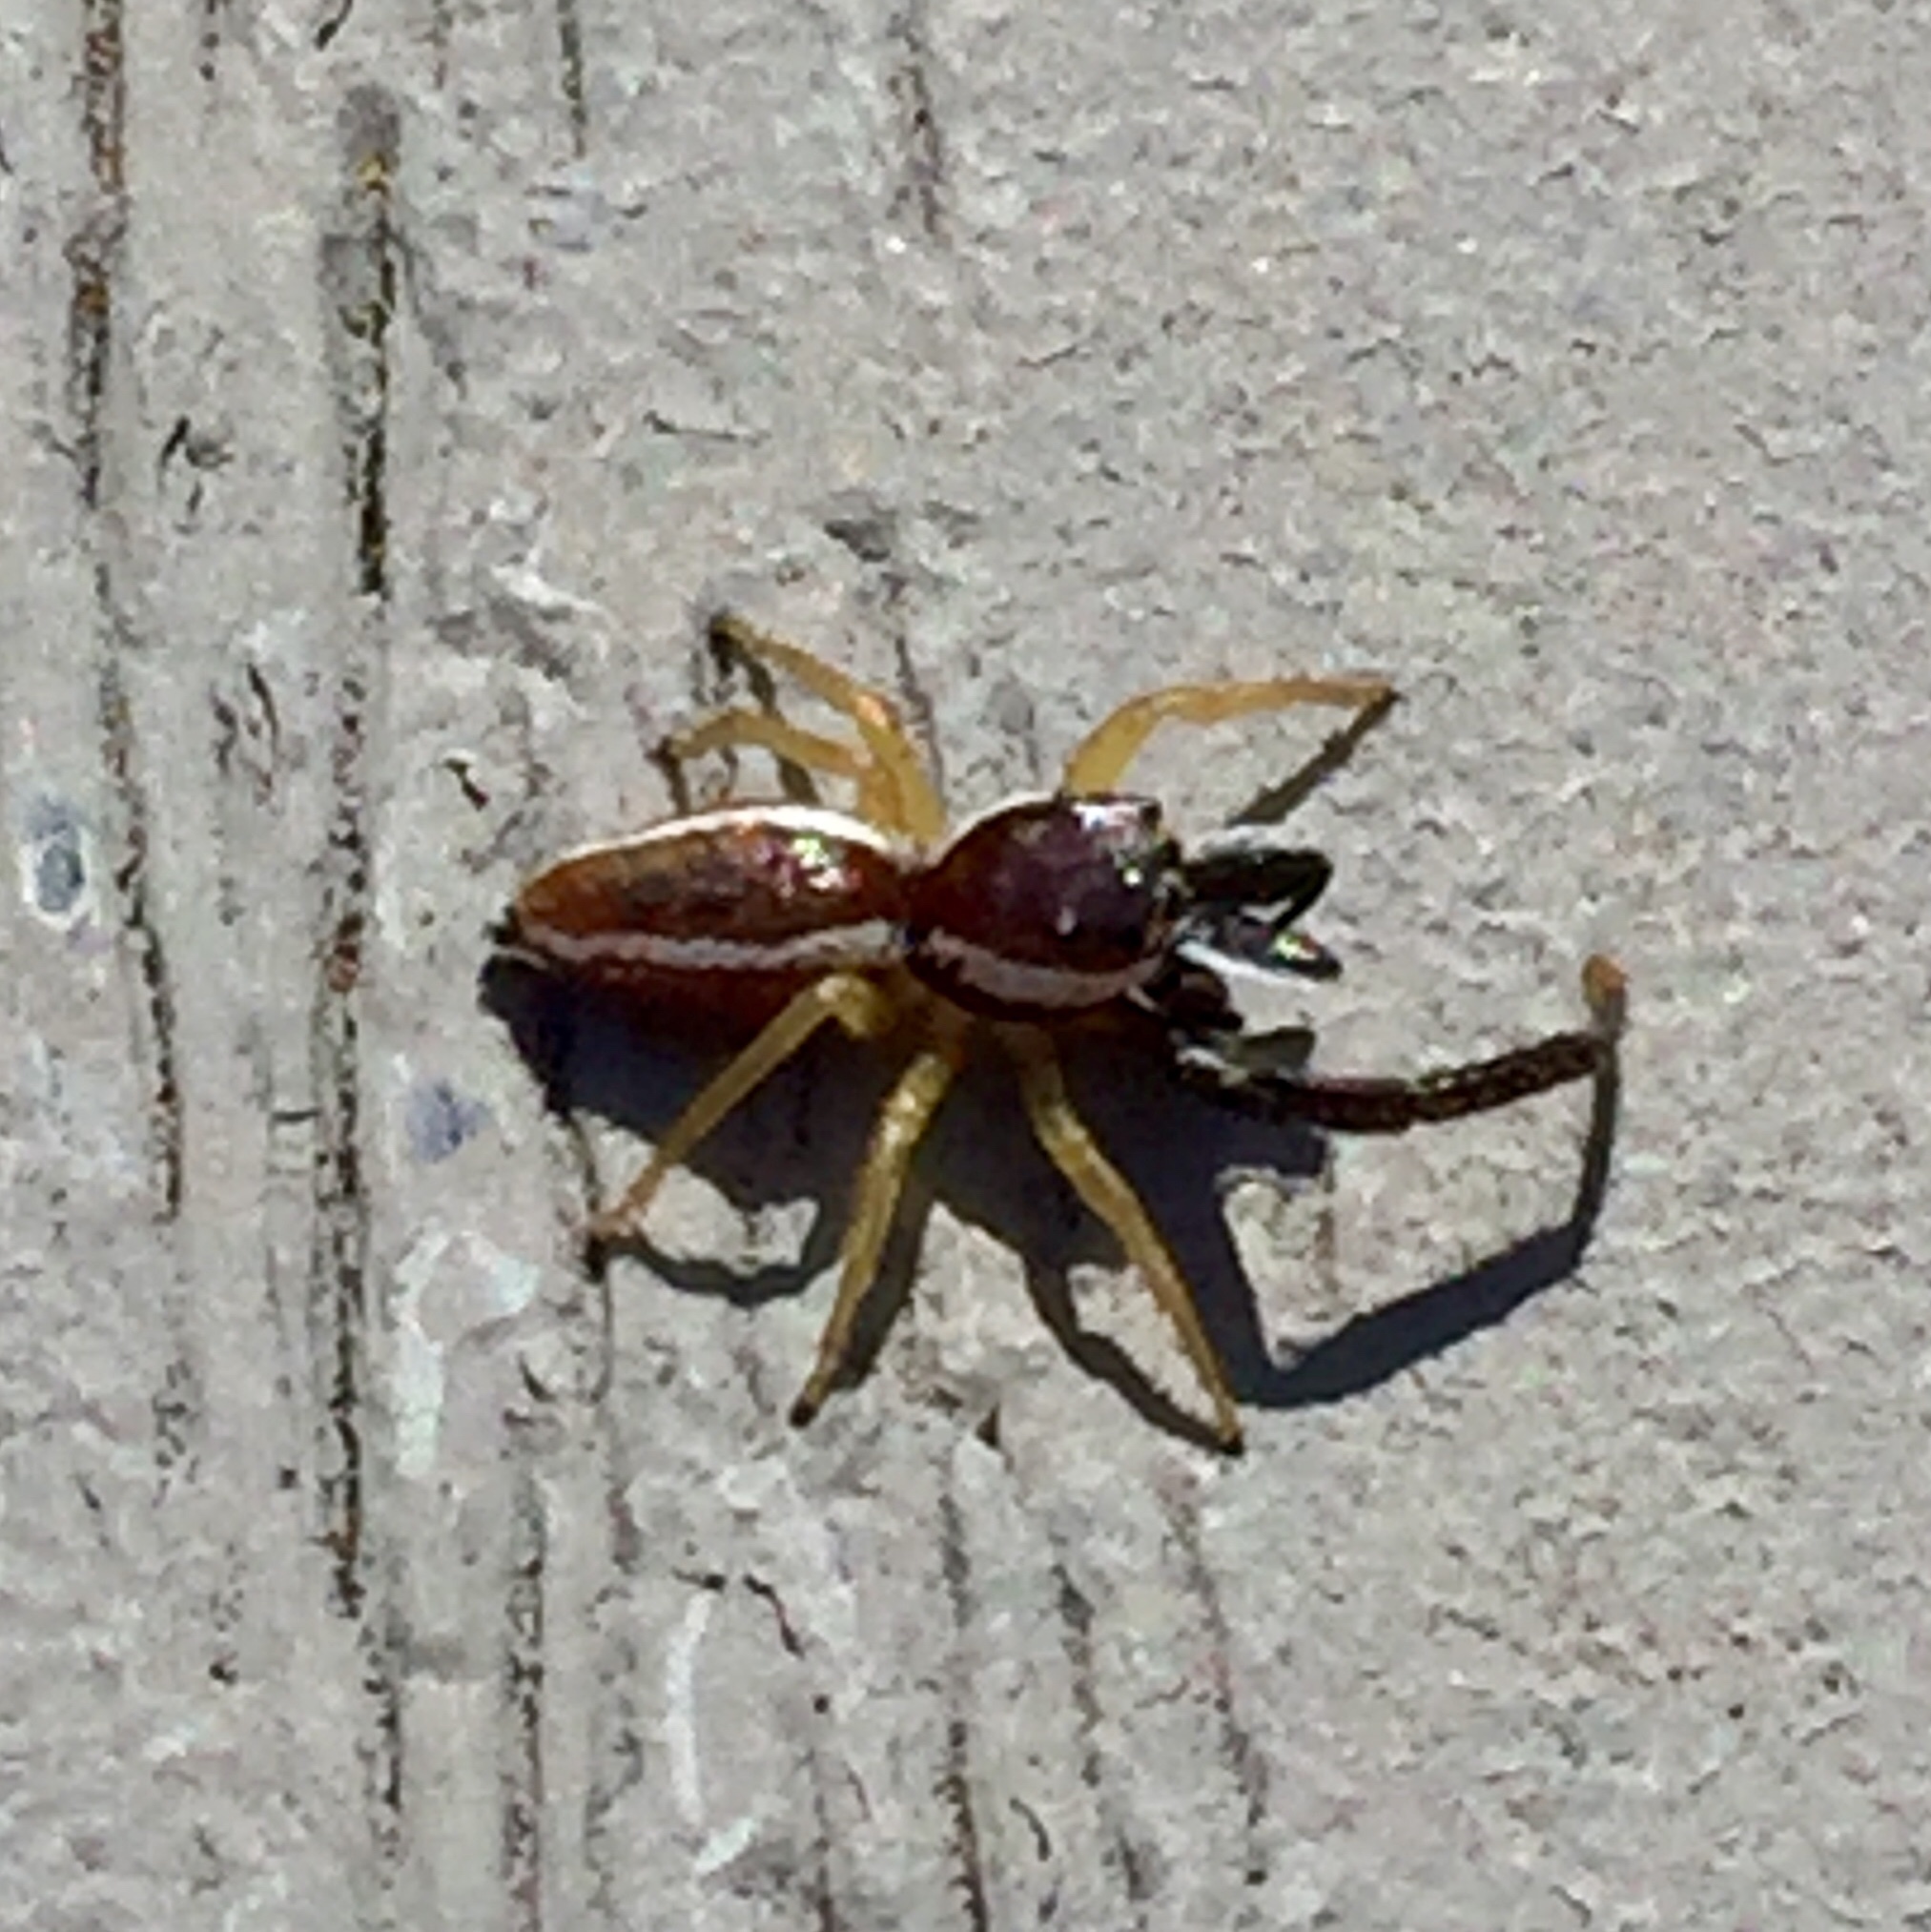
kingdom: Animalia
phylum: Arthropoda
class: Arachnida
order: Araneae
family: Salticidae
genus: Hentzia
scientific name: Hentzia palmarum
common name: Common hentz jumping spider
